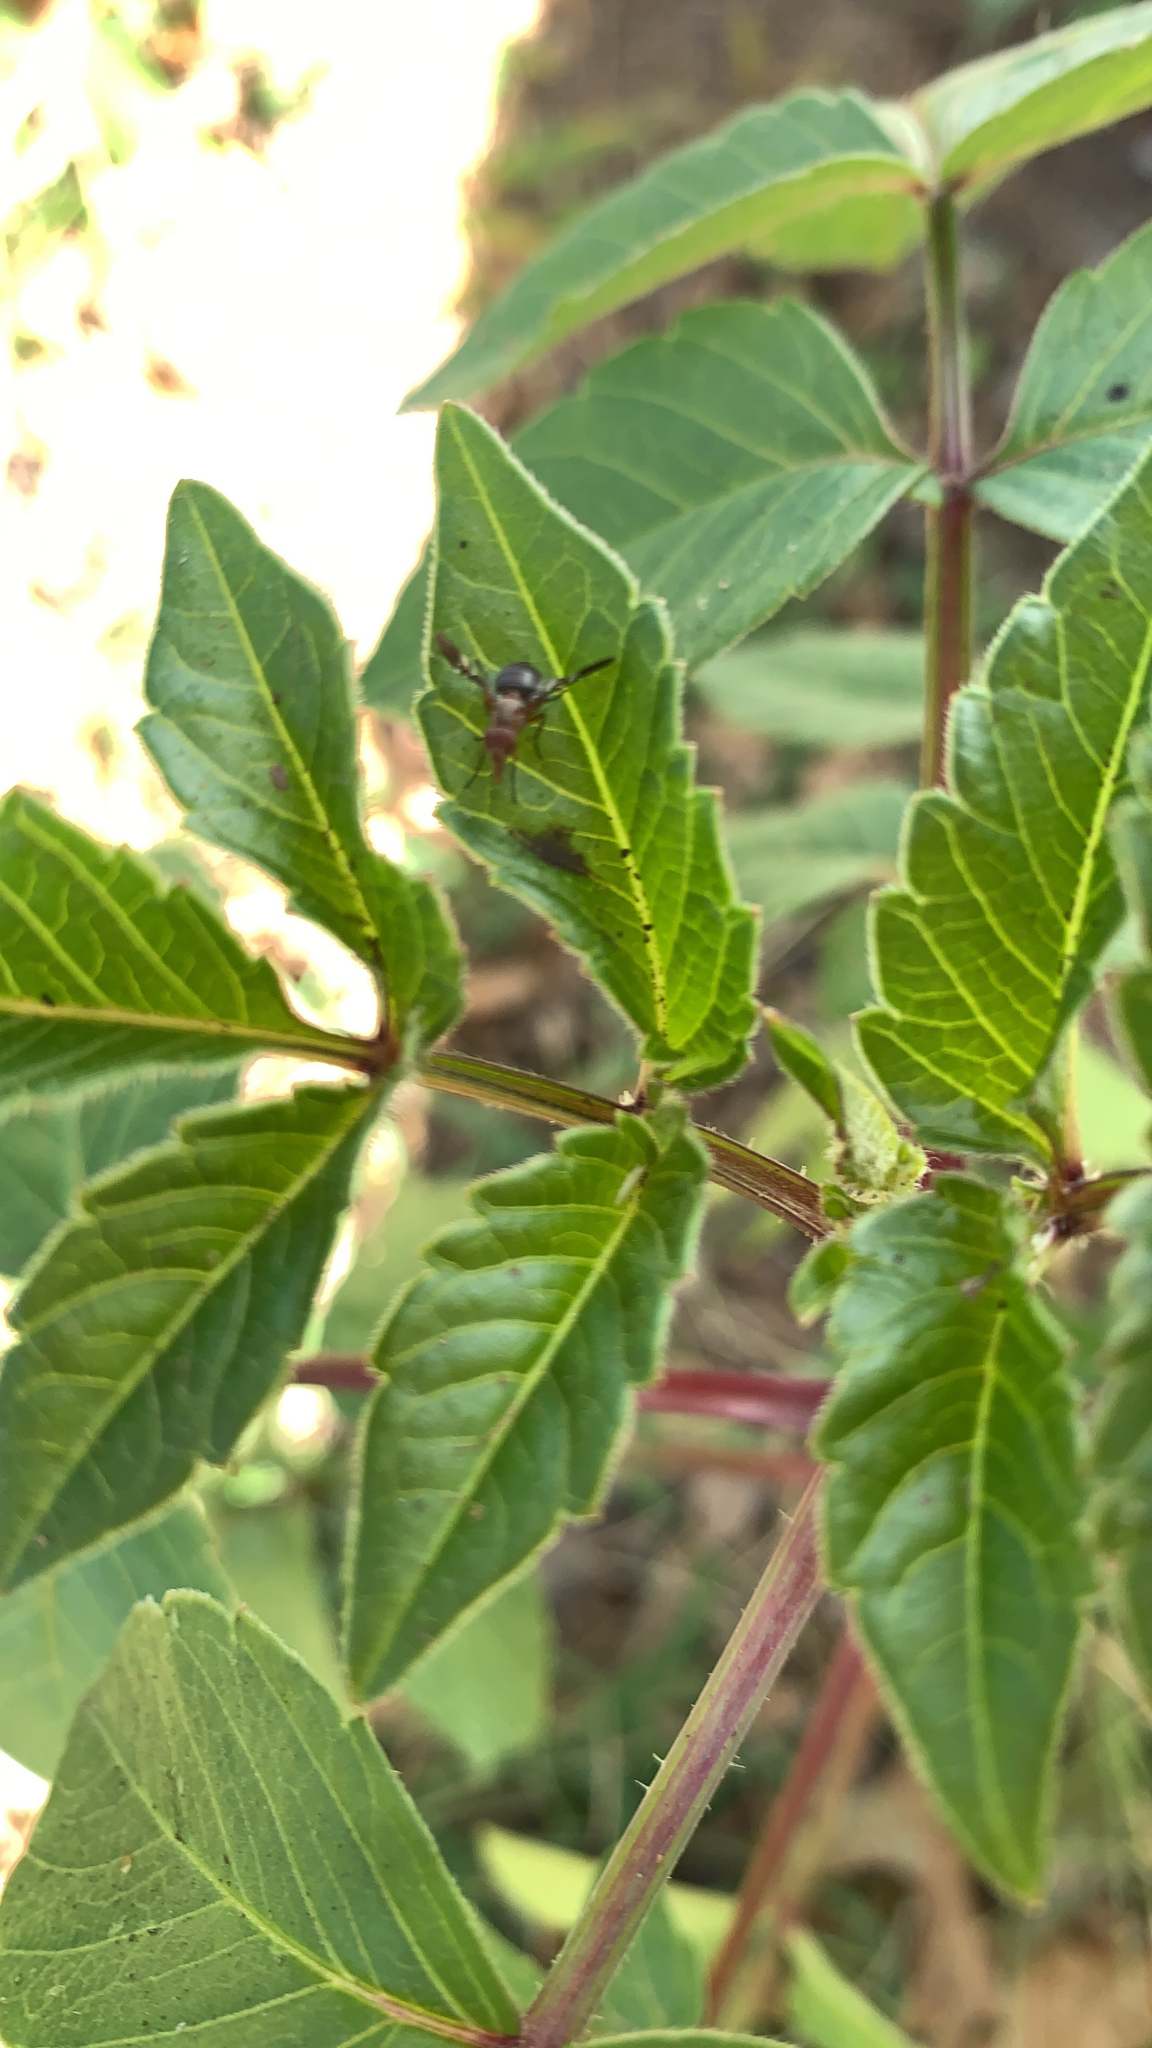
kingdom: Animalia
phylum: Arthropoda
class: Insecta
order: Diptera
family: Ulidiidae
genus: Delphinia
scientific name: Delphinia picta
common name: Common picture-winged fly
